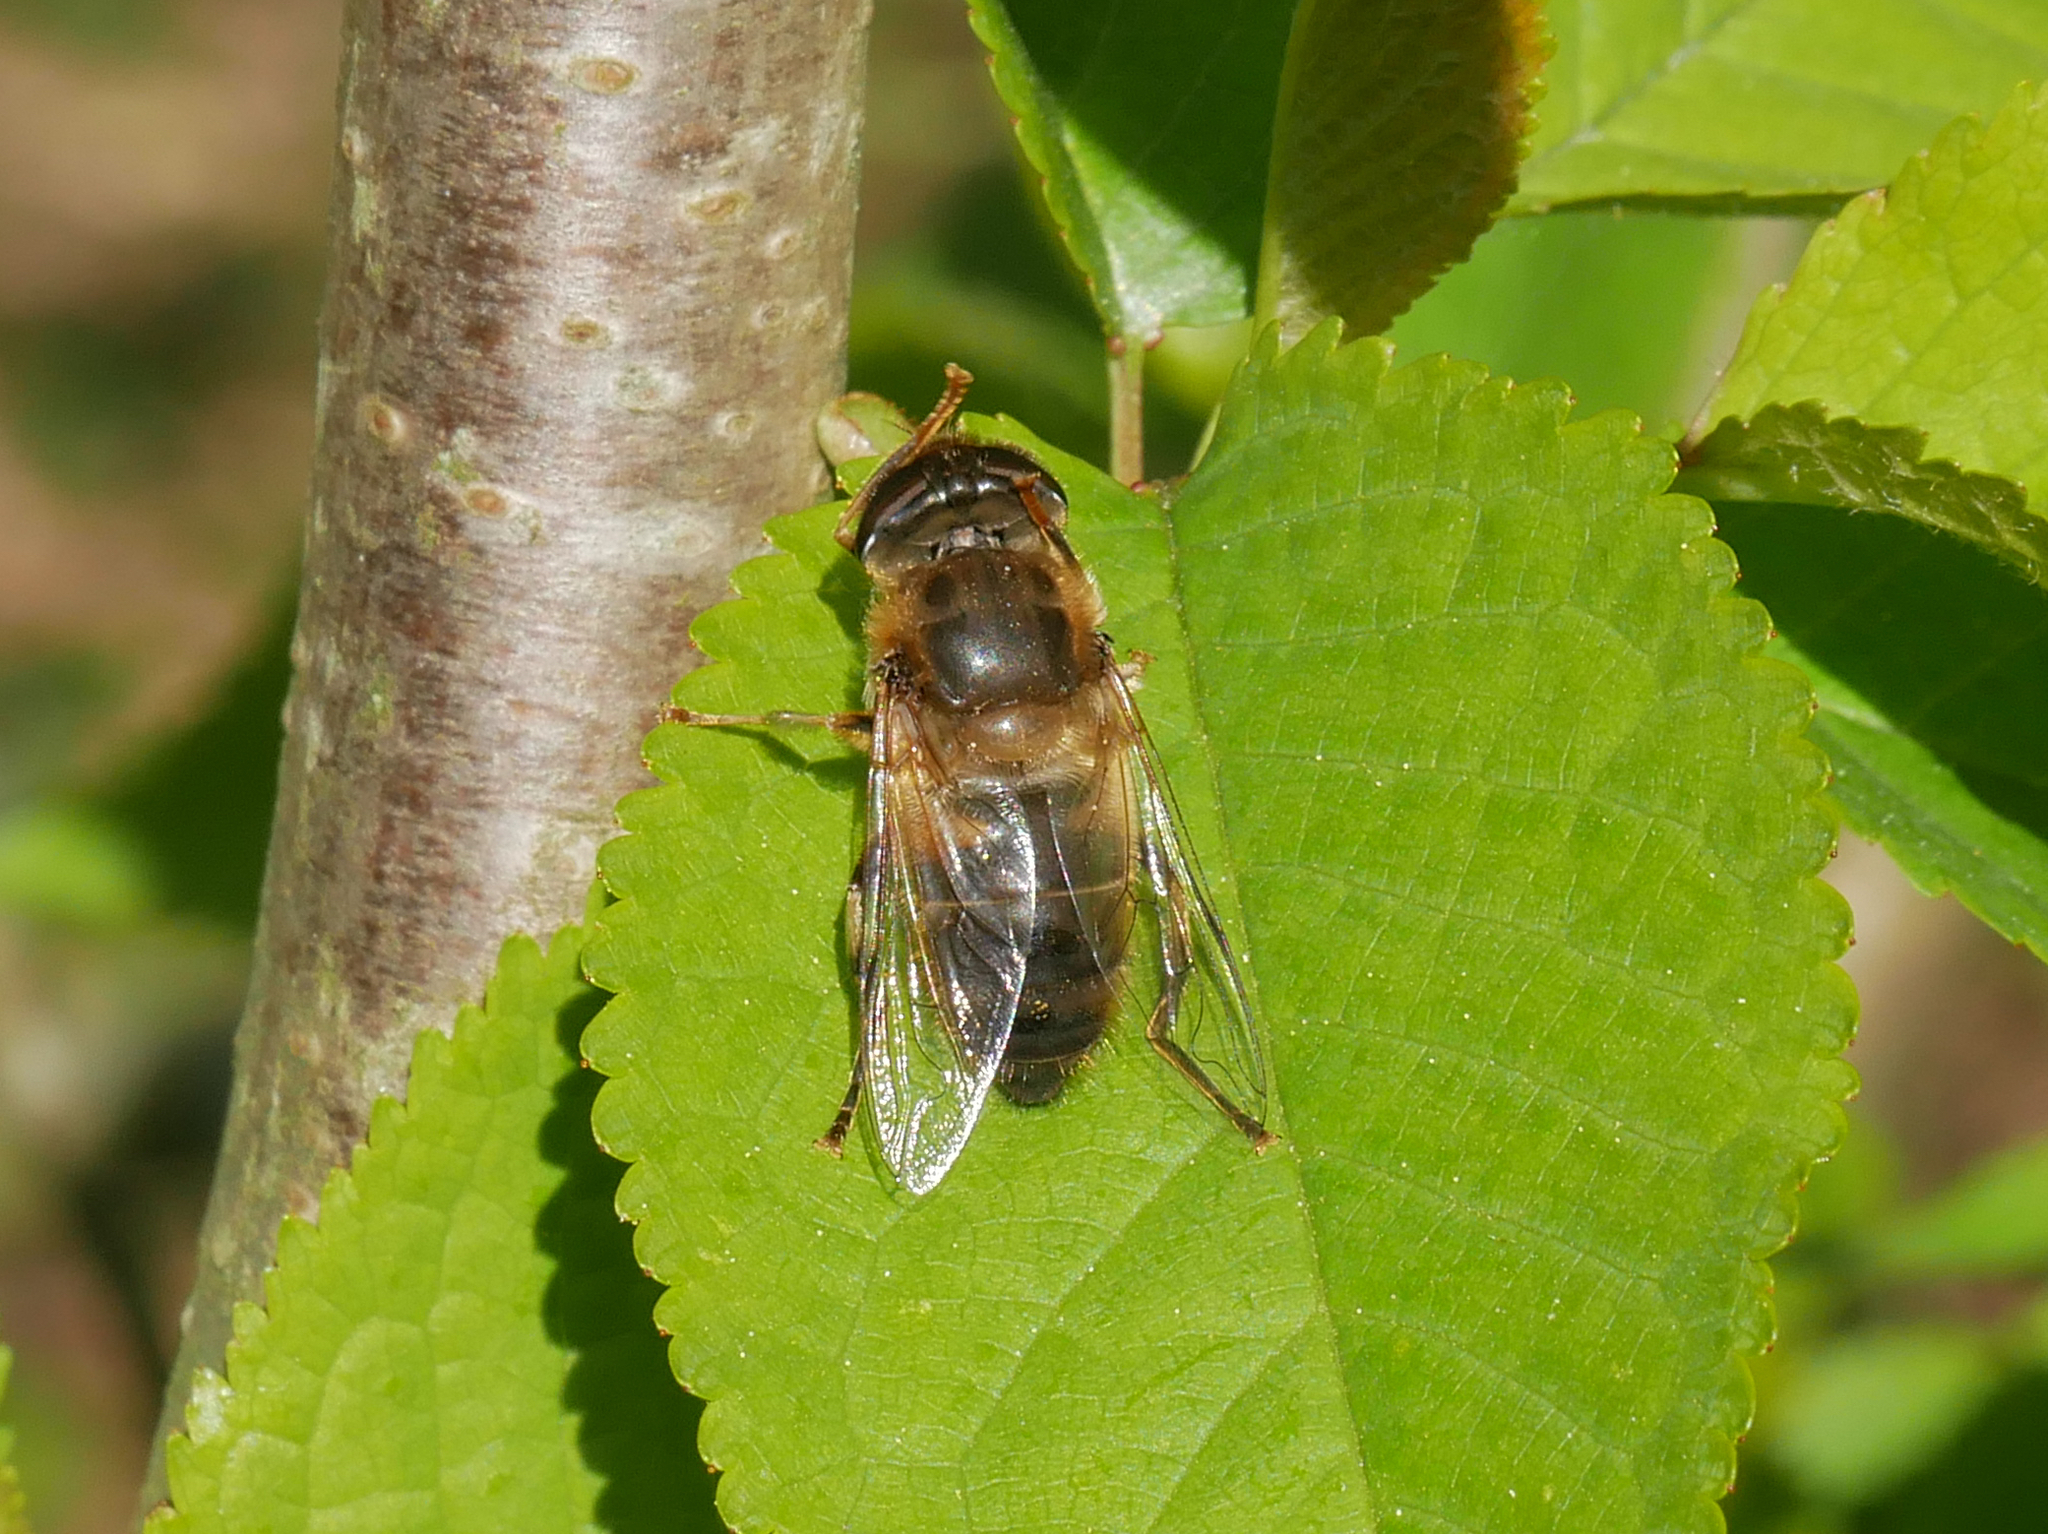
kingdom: Animalia
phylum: Arthropoda
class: Insecta
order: Diptera
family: Syrphidae
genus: Eristalis
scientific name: Eristalis pertinax
